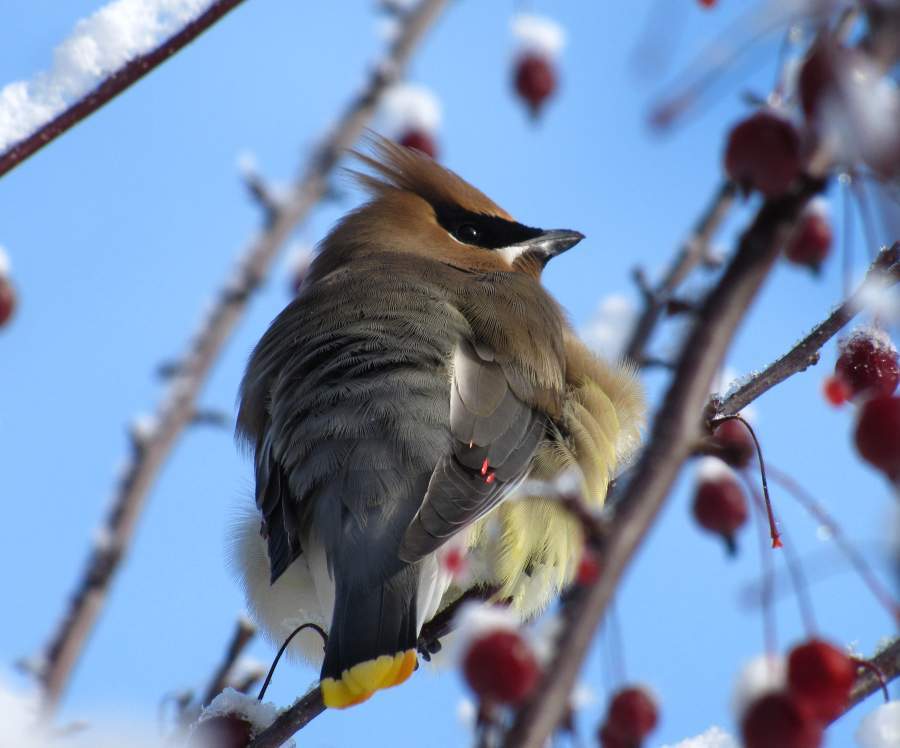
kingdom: Animalia
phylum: Chordata
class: Aves
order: Passeriformes
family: Bombycillidae
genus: Bombycilla
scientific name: Bombycilla cedrorum
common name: Cedar waxwing
